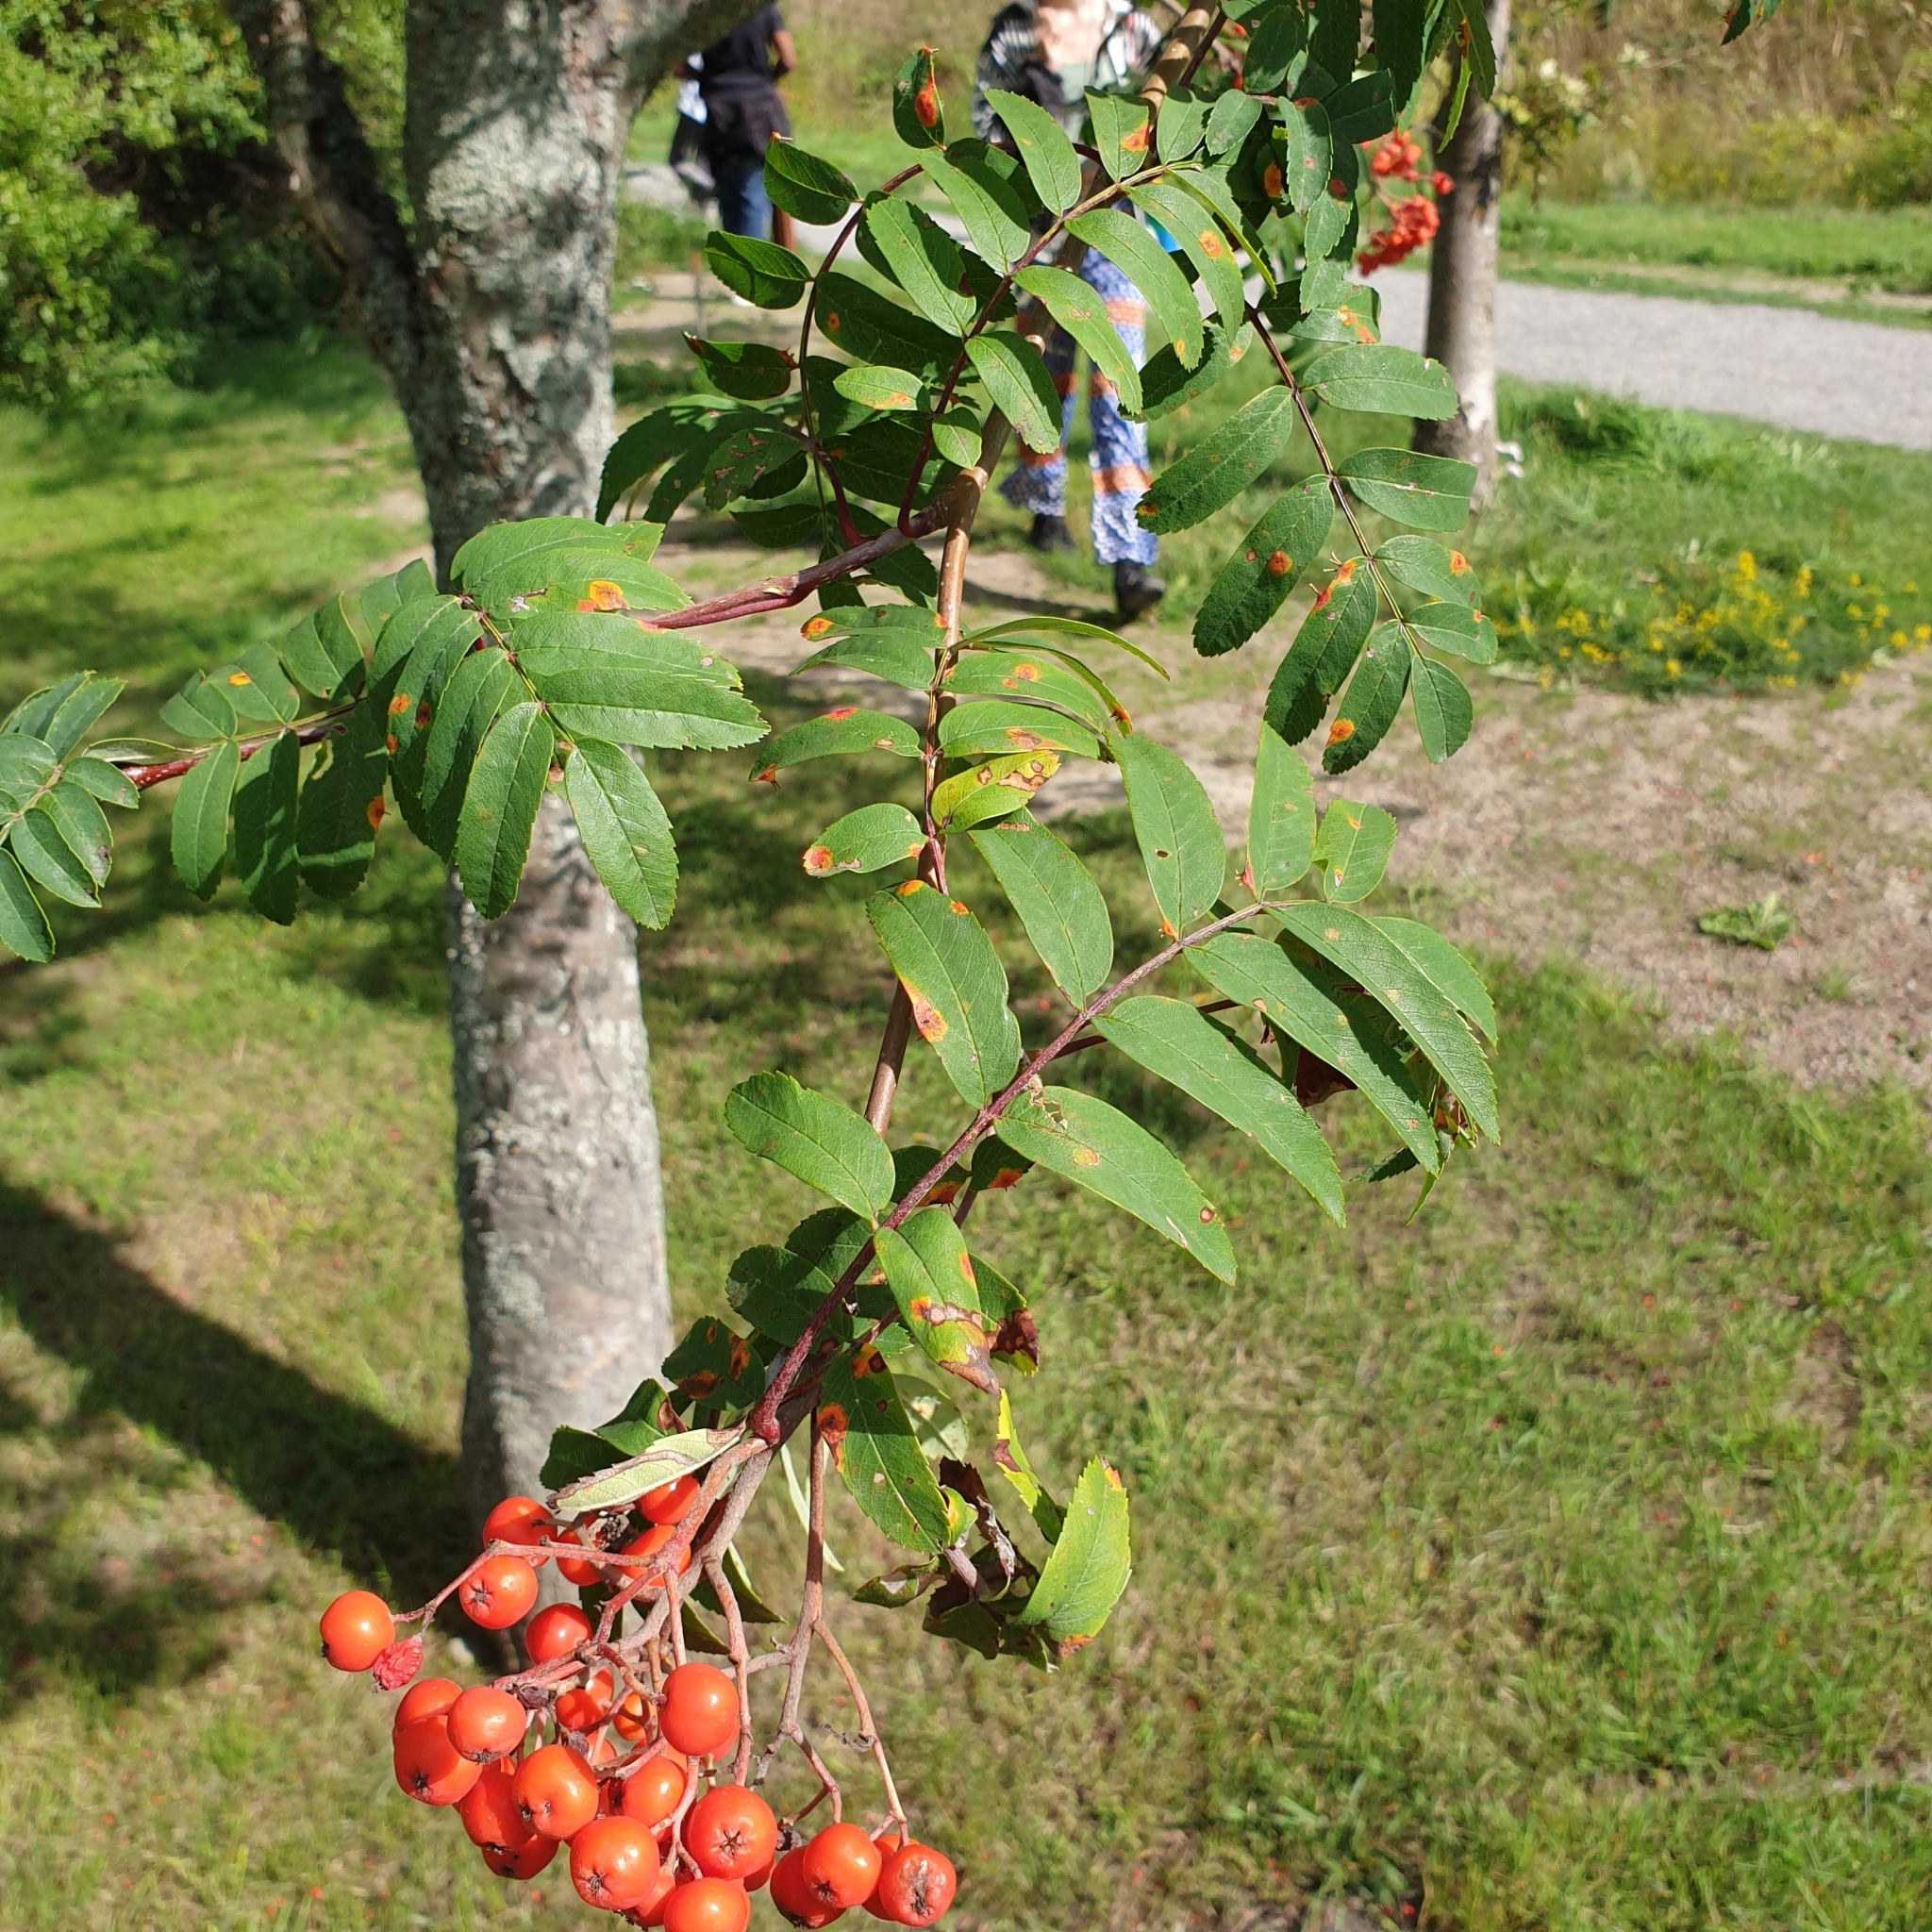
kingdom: Plantae
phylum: Tracheophyta
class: Magnoliopsida
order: Rosales
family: Rosaceae
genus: Sorbus
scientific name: Sorbus aucuparia
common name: Rowan
